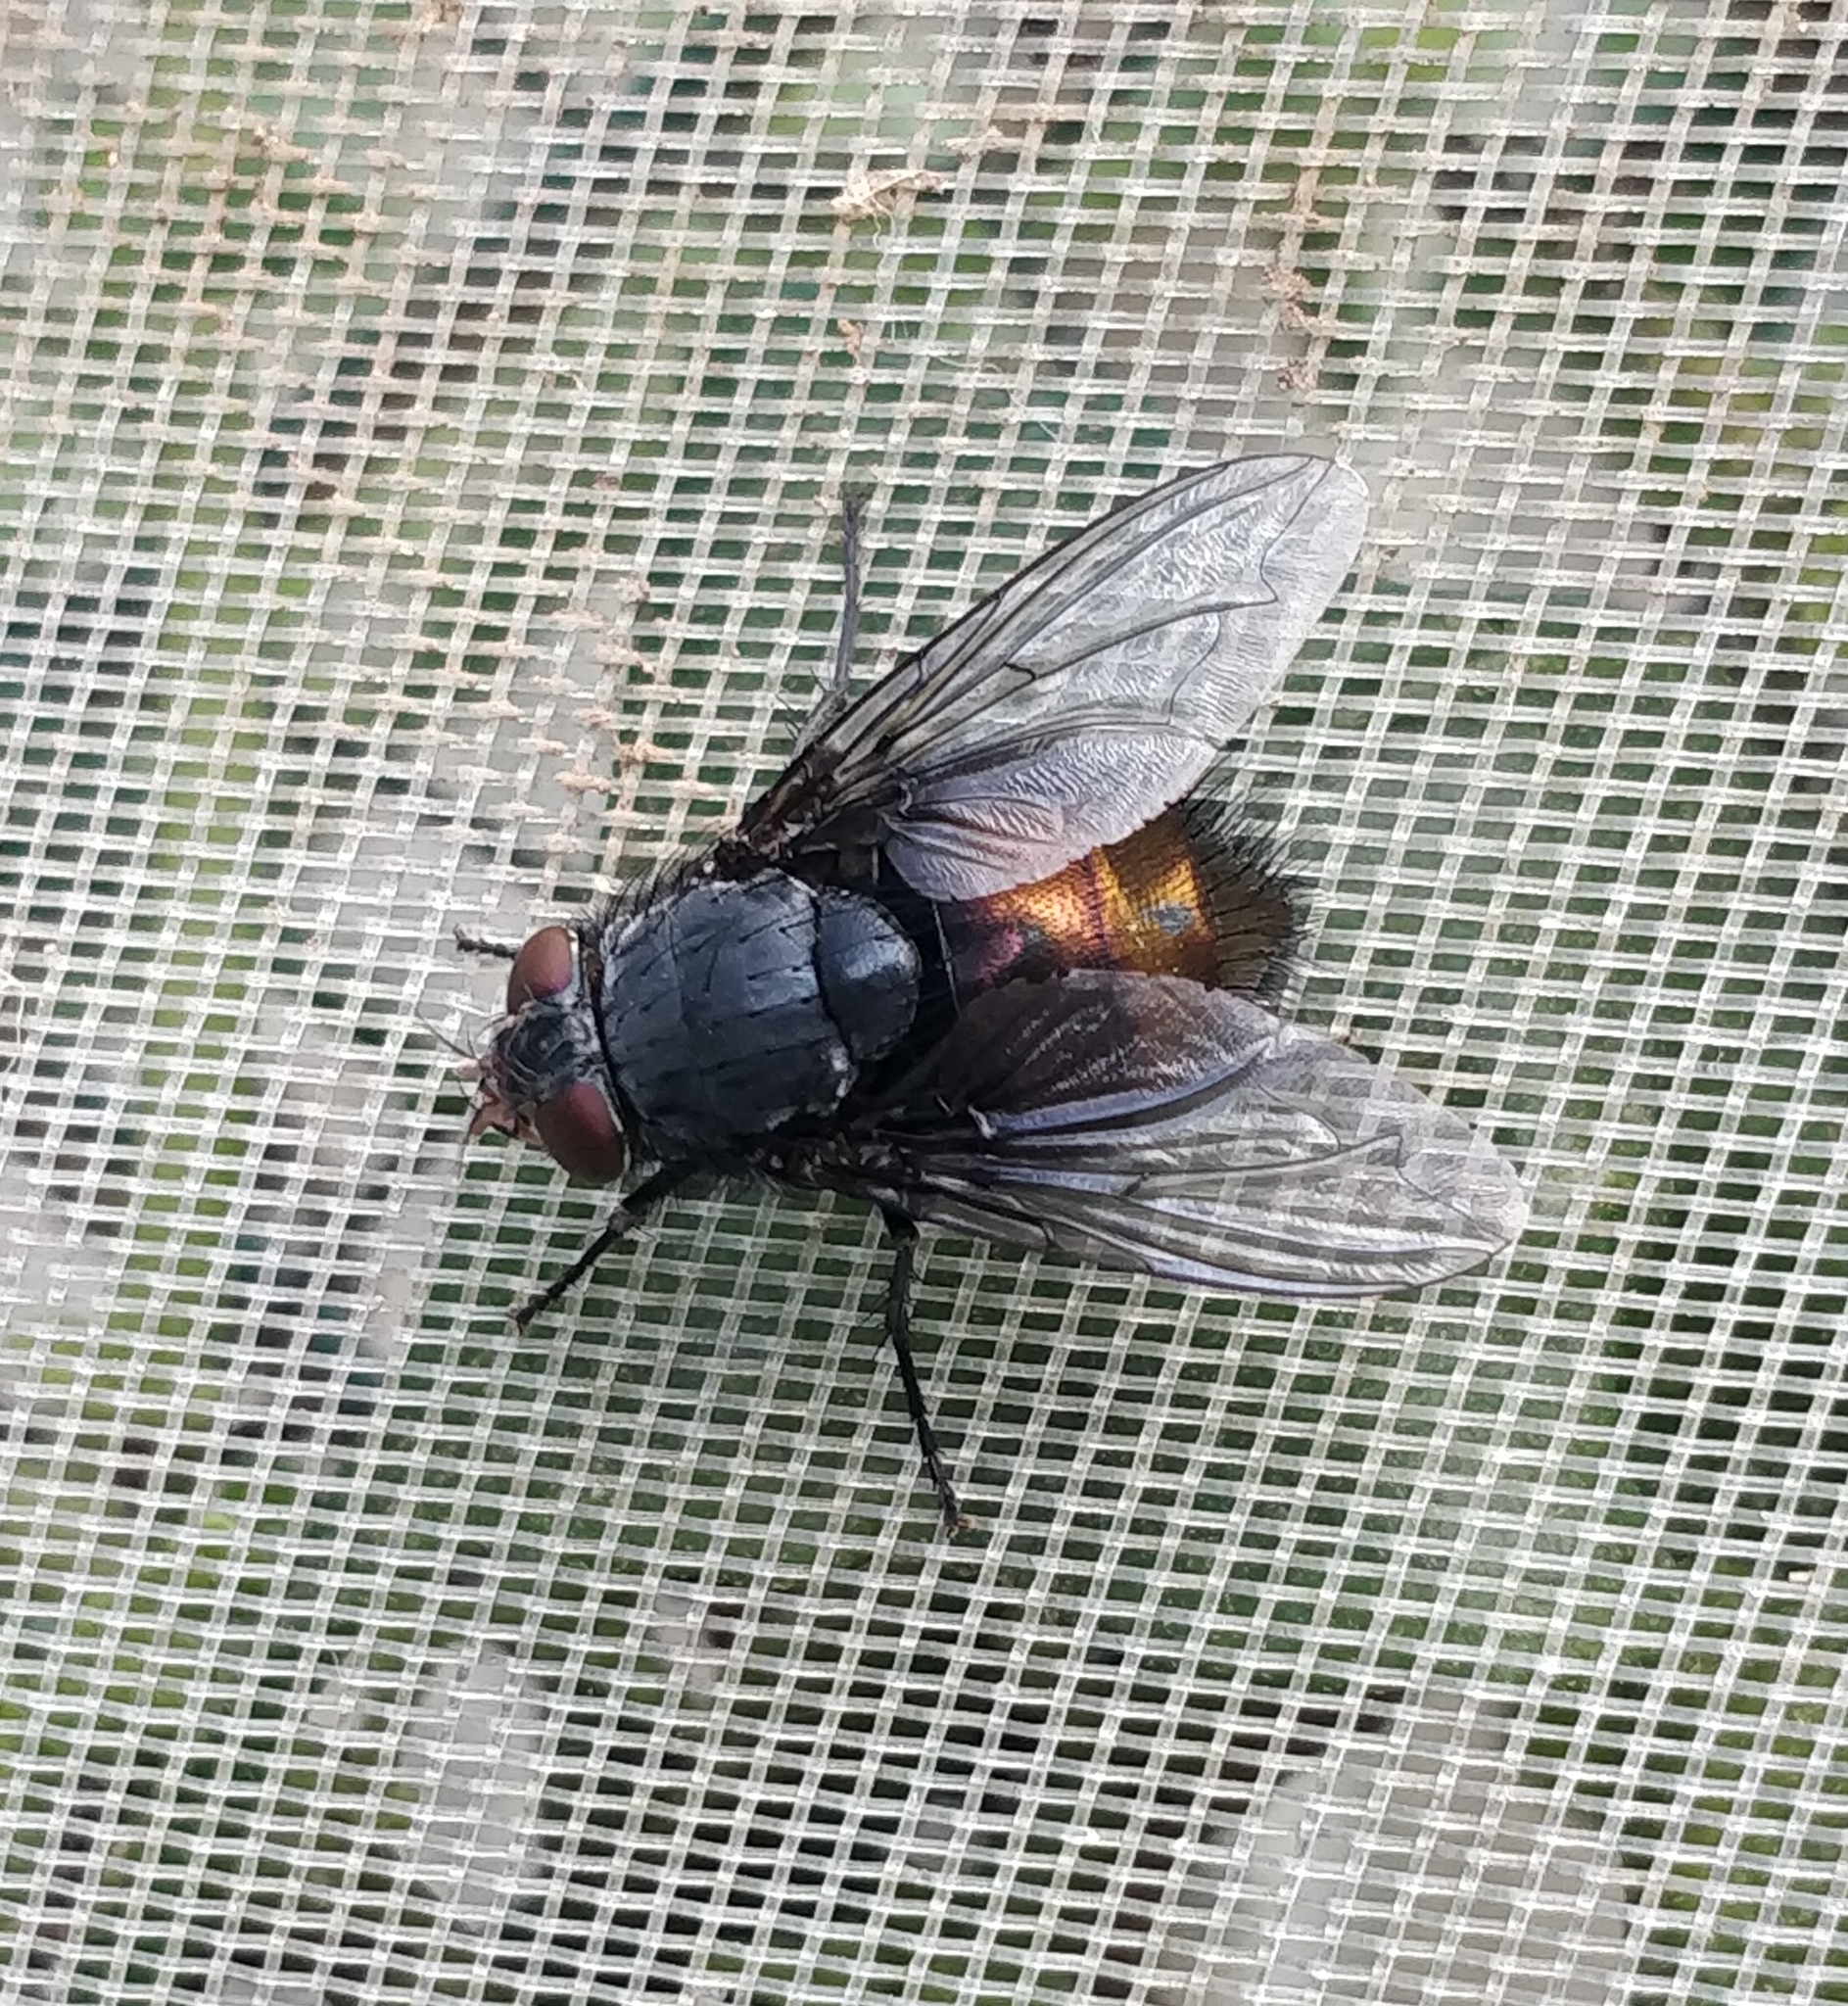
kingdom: Animalia
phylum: Arthropoda
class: Insecta
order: Diptera
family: Calliphoridae
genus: Calliphora
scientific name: Calliphora splendens
